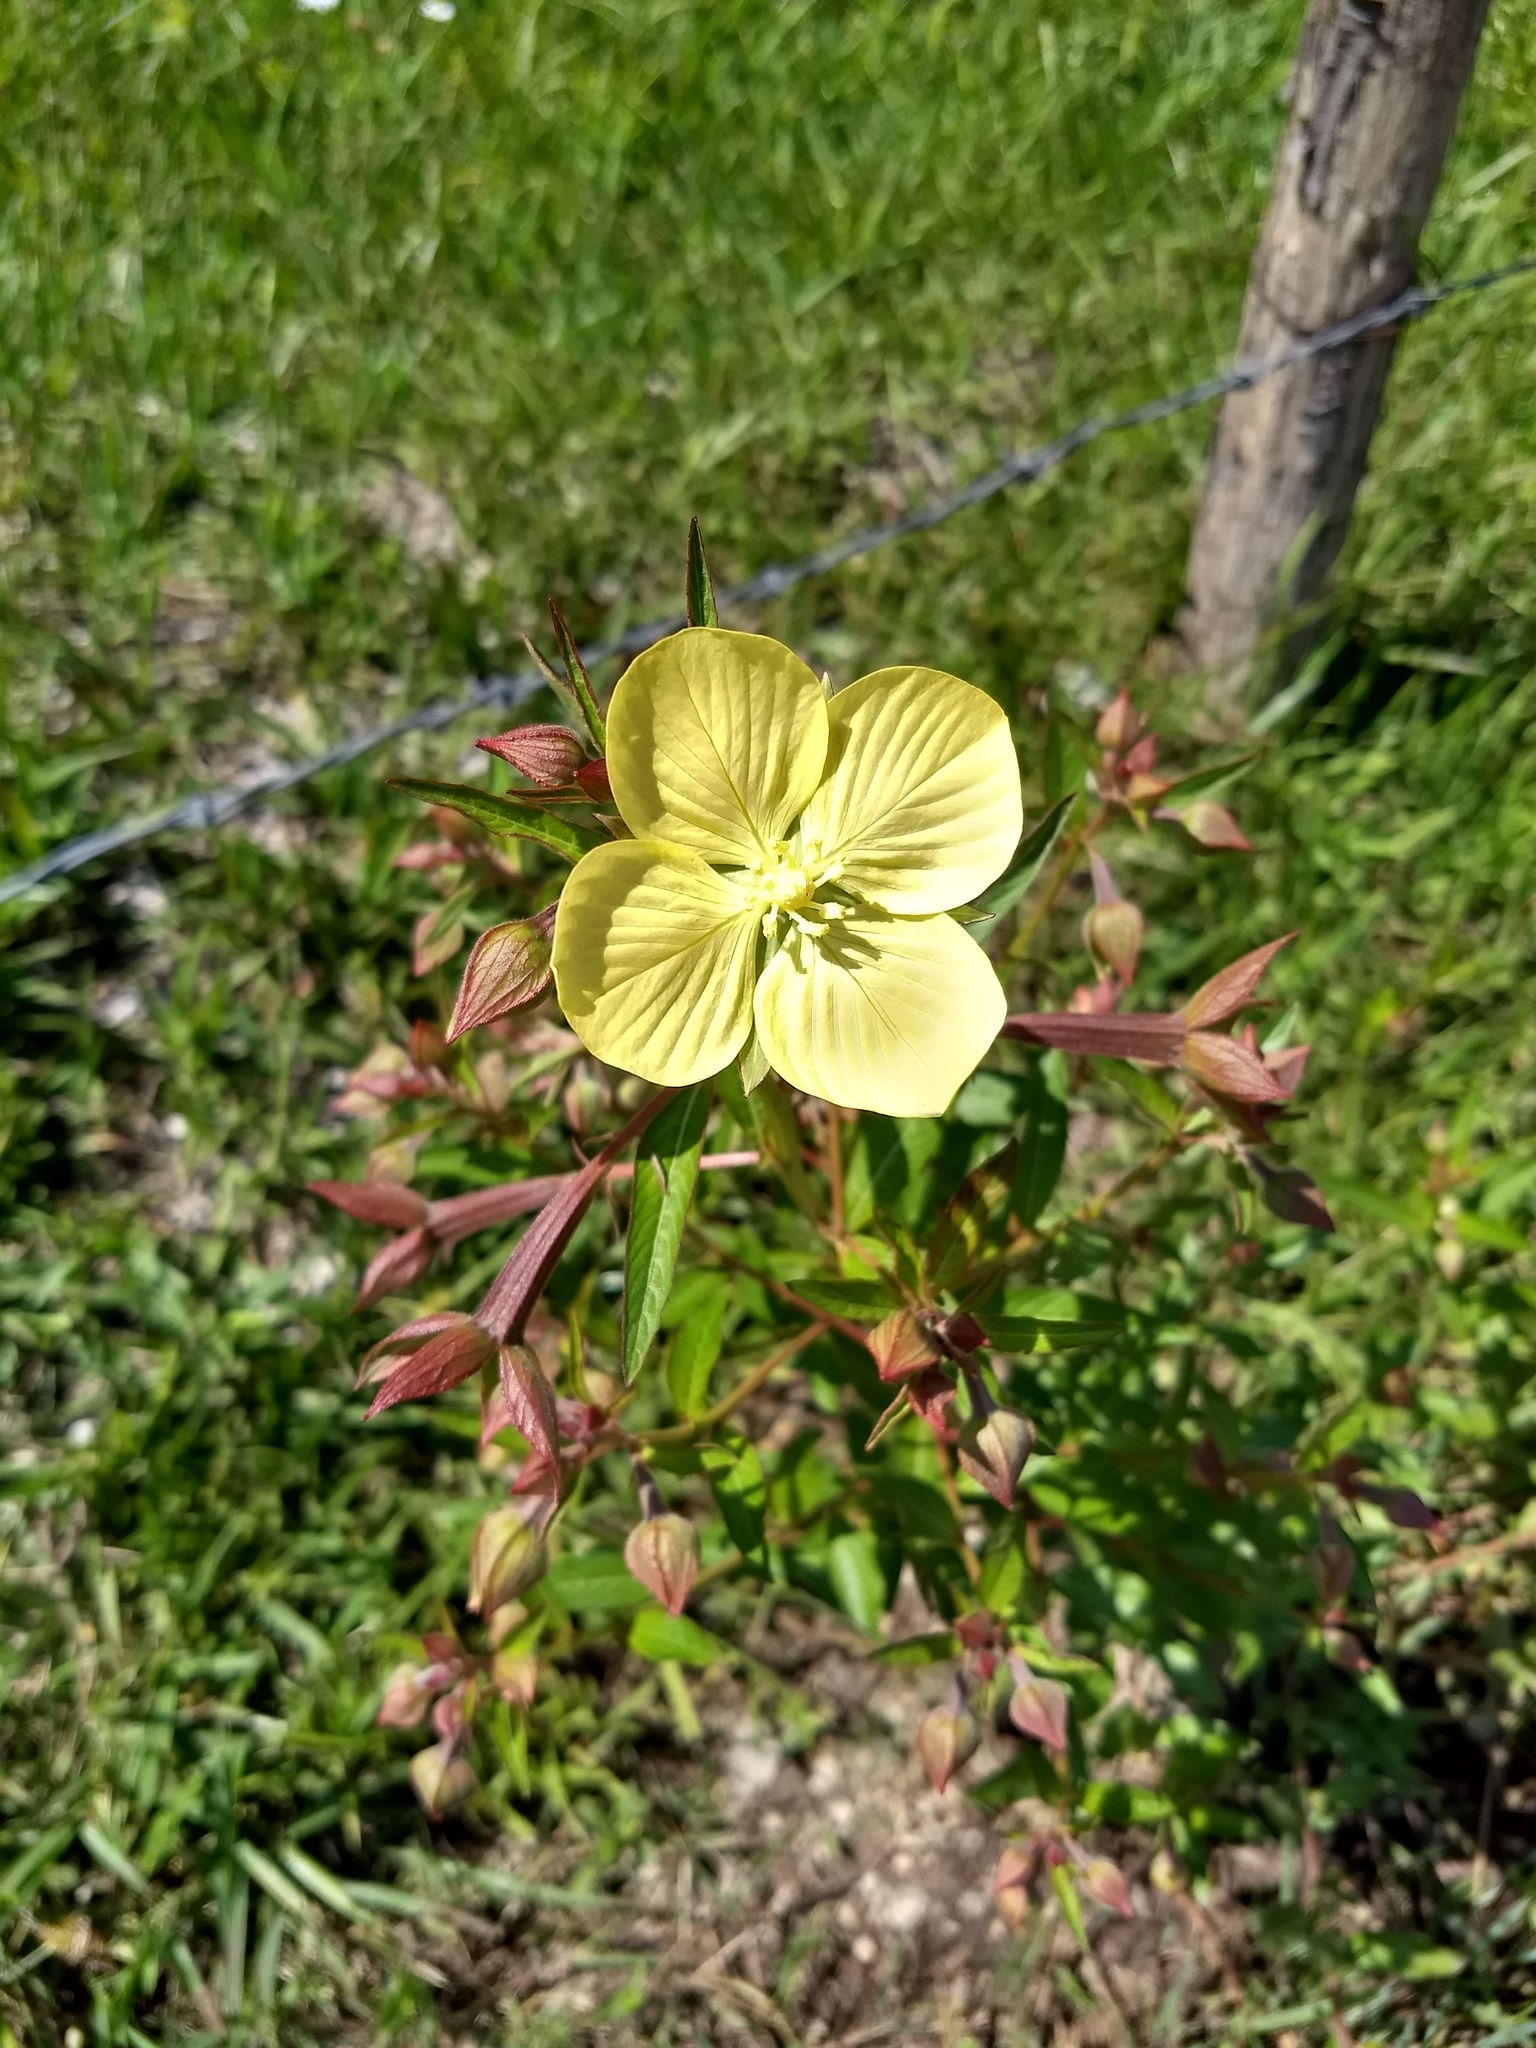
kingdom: Plantae
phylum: Tracheophyta
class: Magnoliopsida
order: Myrtales
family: Onagraceae
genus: Ludwigia
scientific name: Ludwigia octovalvis
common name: Water-primrose
